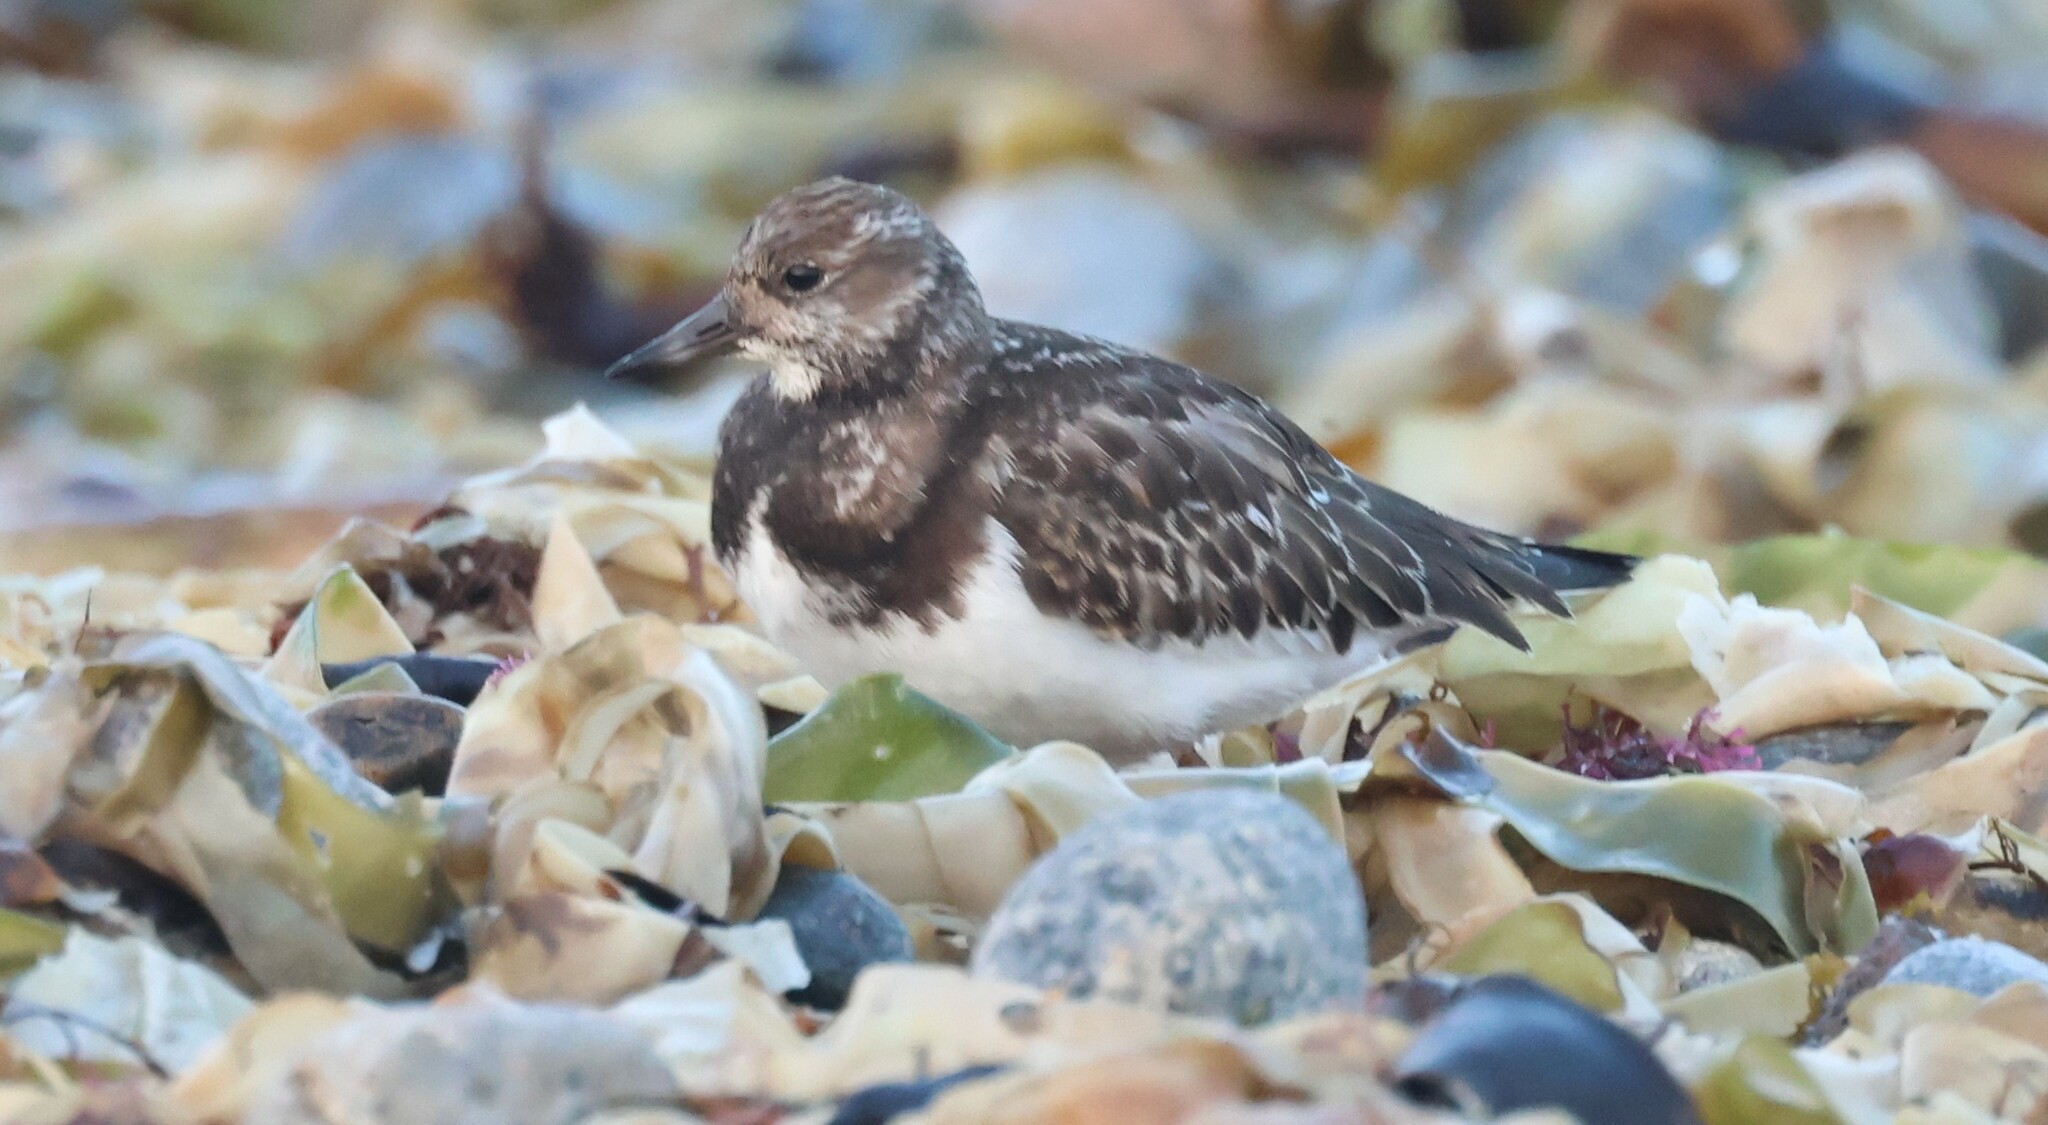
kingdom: Animalia
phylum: Chordata
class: Aves
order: Charadriiformes
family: Scolopacidae
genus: Arenaria
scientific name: Arenaria interpres
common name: Ruddy turnstone
